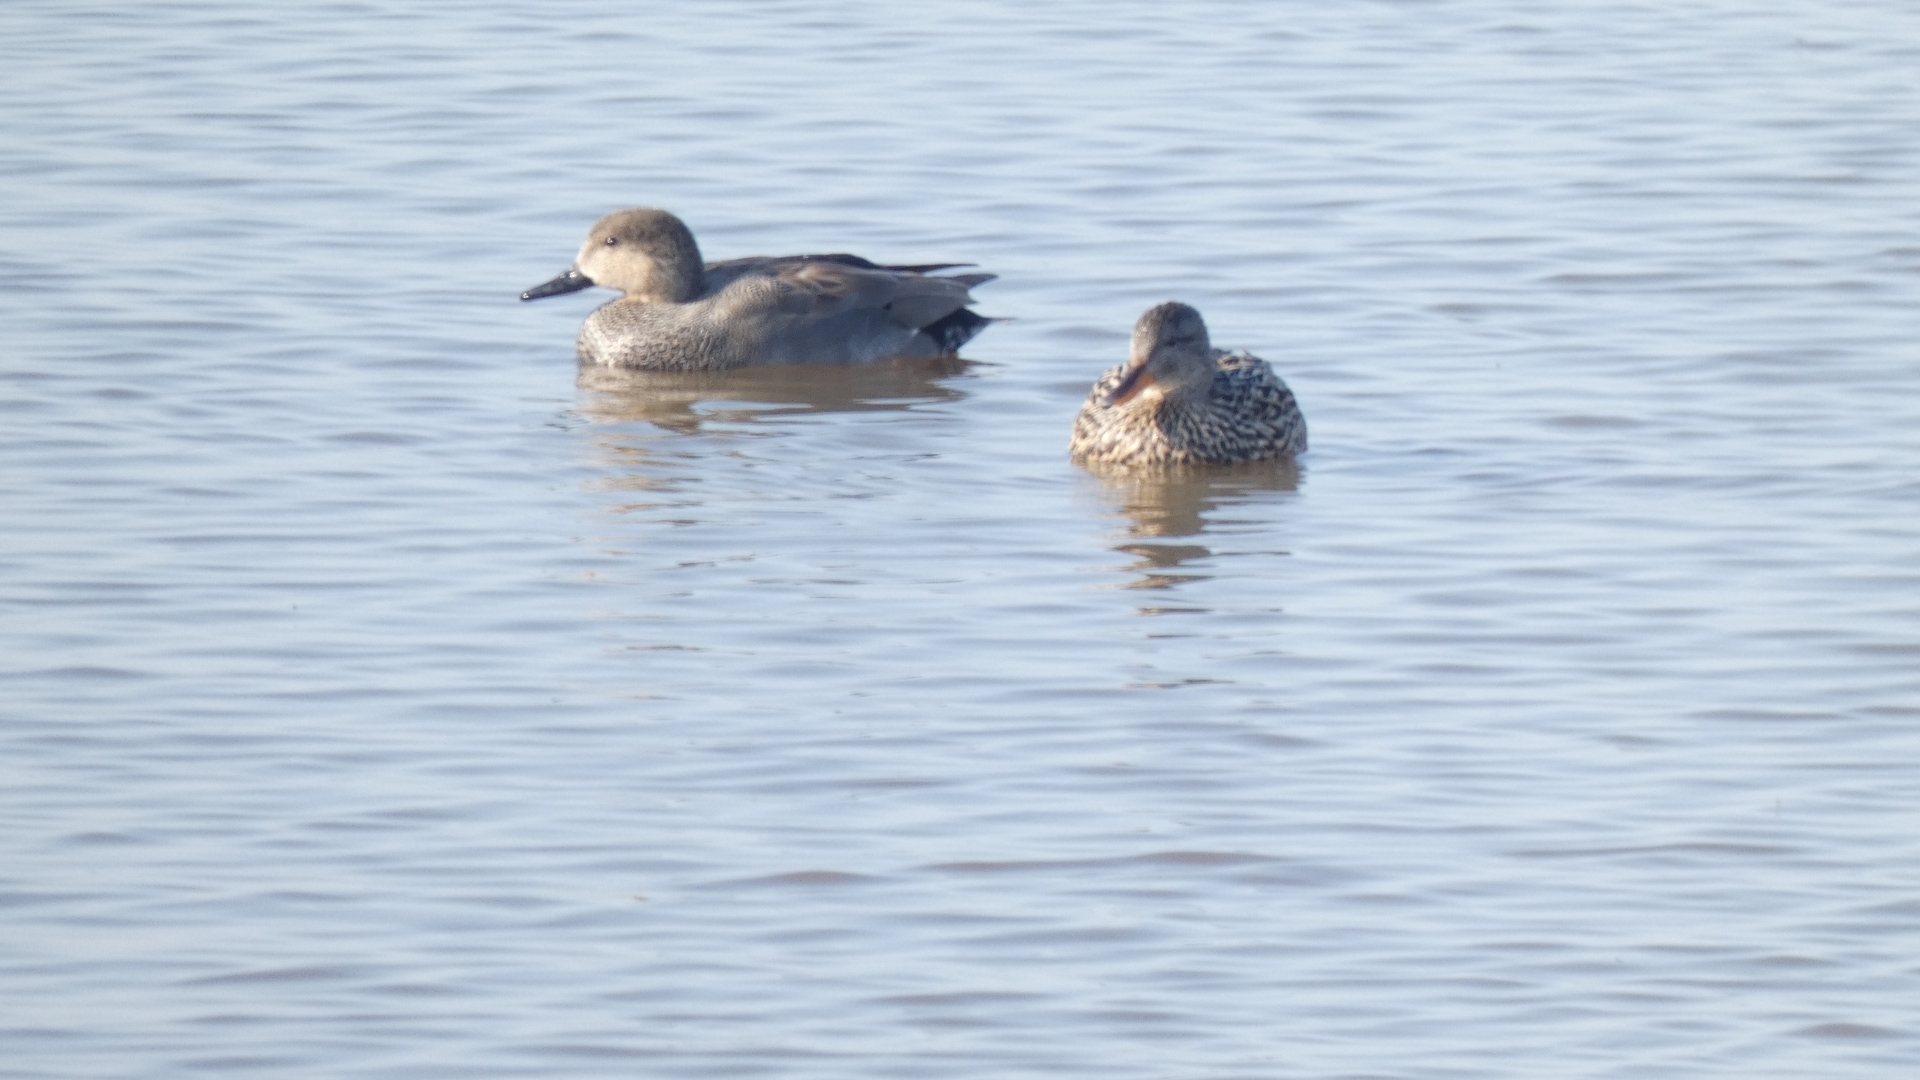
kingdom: Animalia
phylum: Chordata
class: Aves
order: Anseriformes
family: Anatidae
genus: Mareca
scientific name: Mareca strepera
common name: Gadwall
